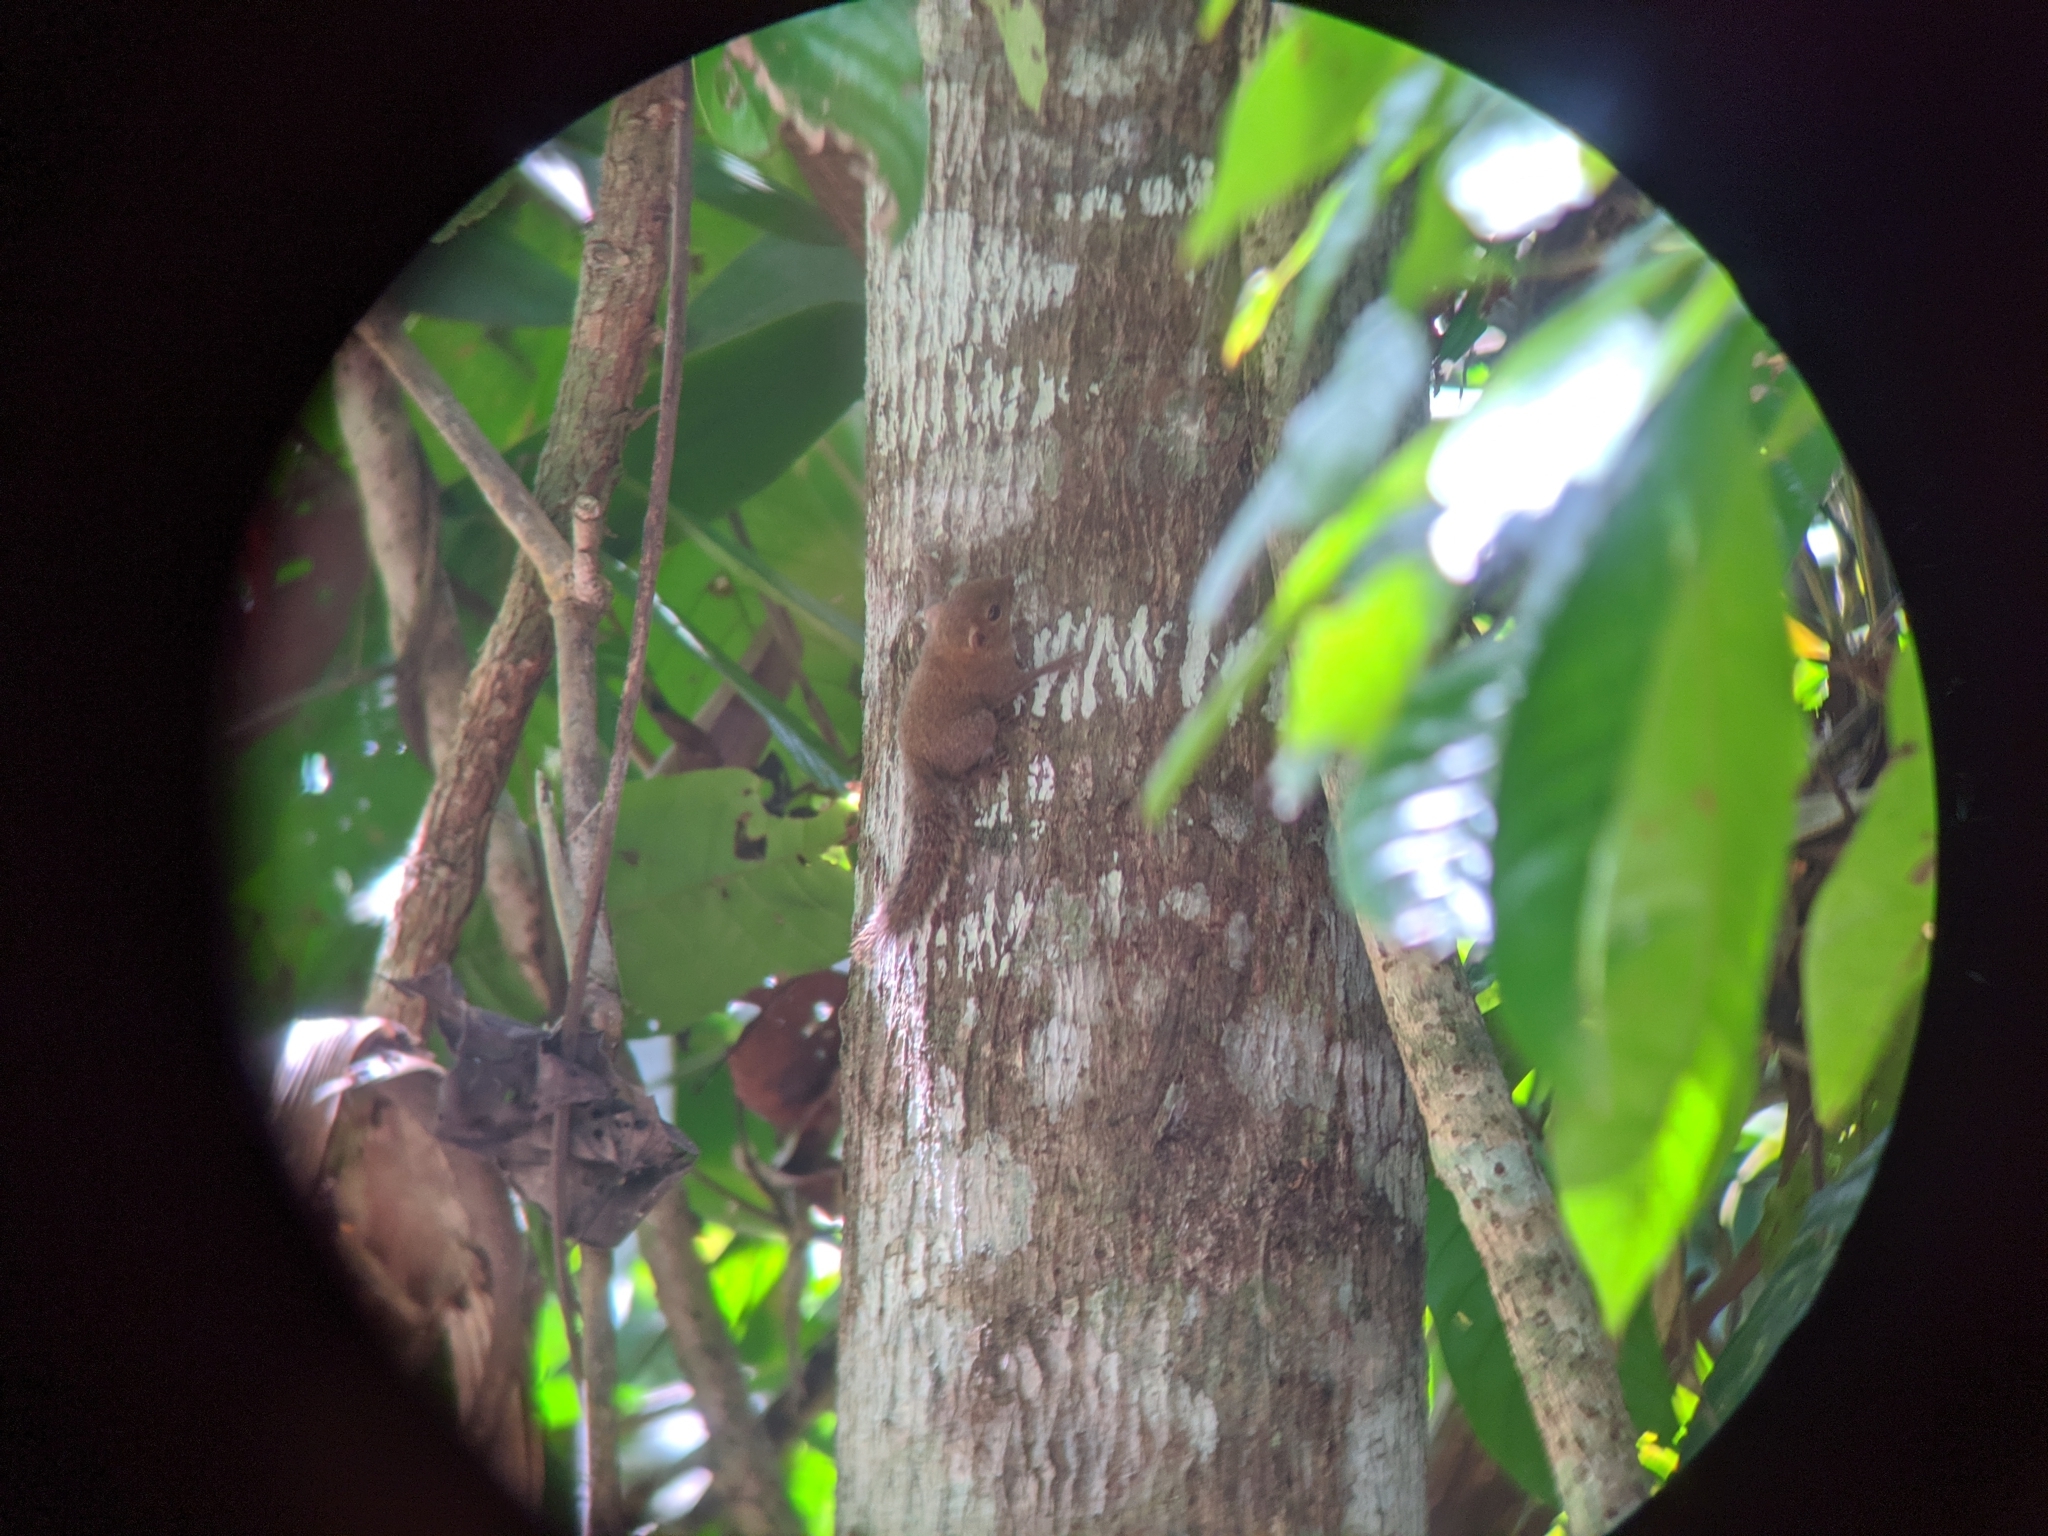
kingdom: Animalia
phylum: Chordata
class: Mammalia
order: Rodentia
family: Sciuridae
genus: Exilisciurus
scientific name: Exilisciurus exilis
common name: Least pygmy squirrel
